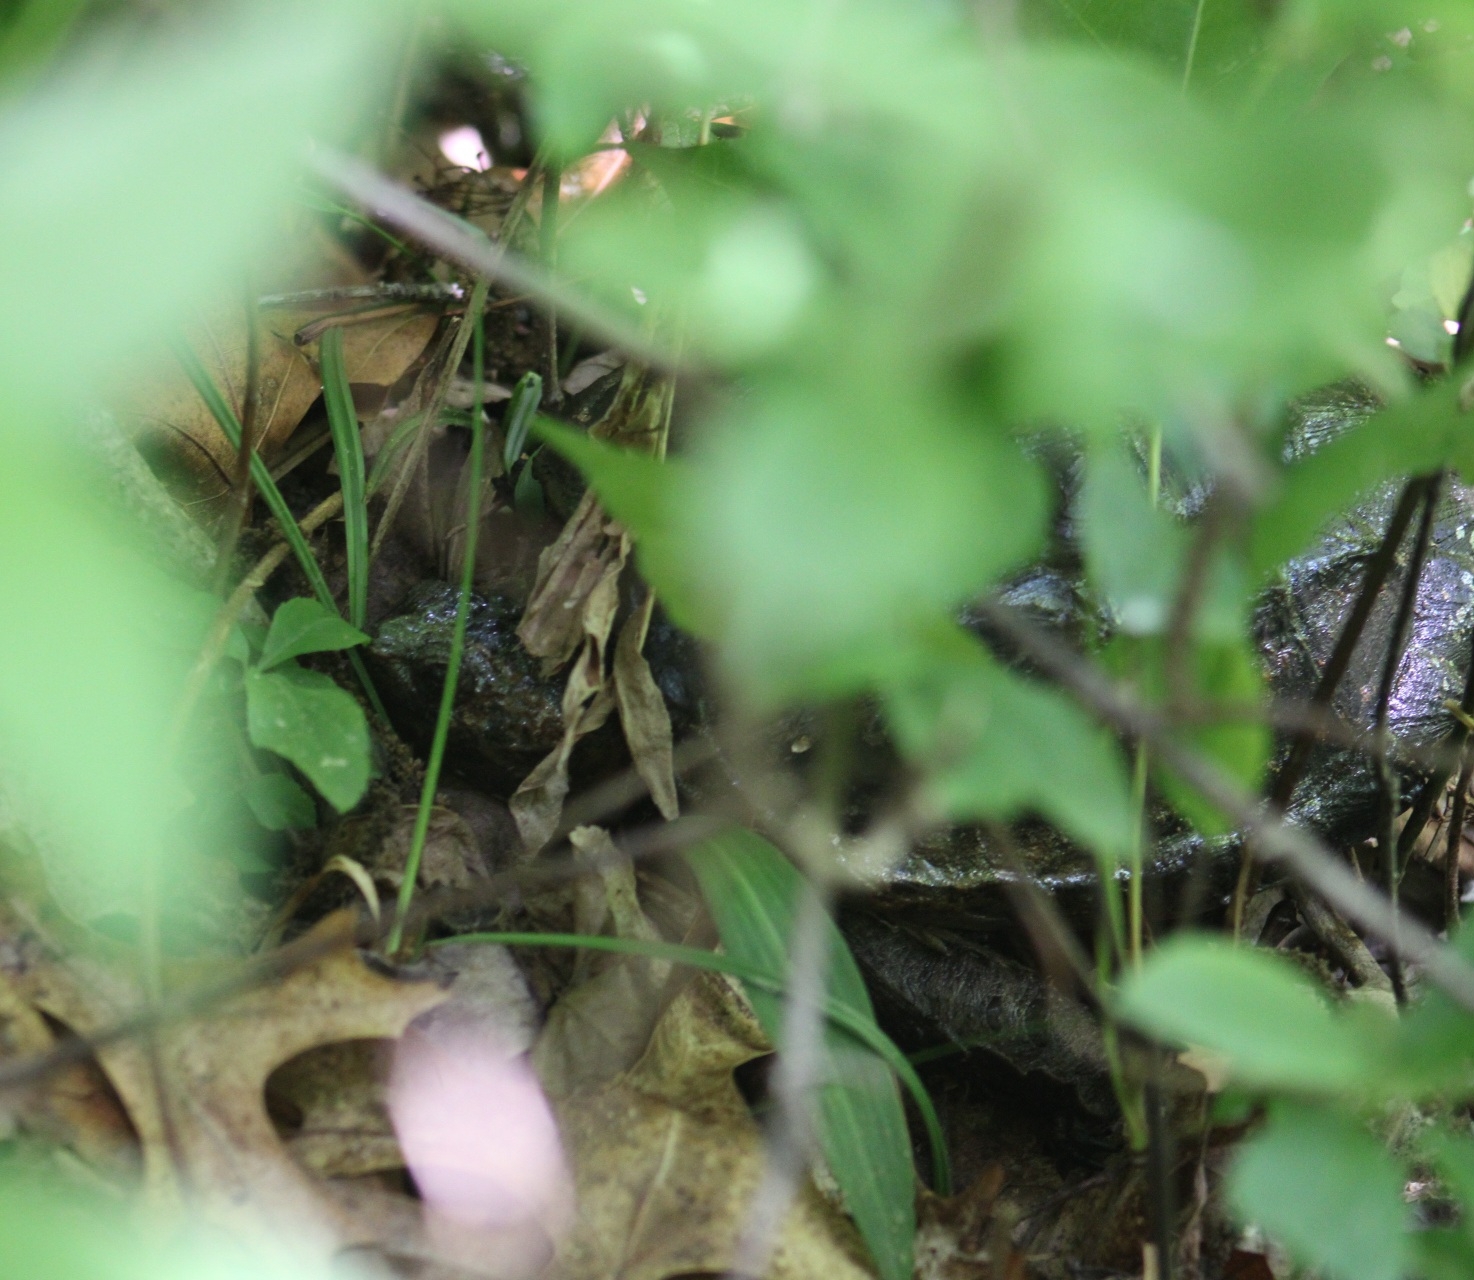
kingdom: Animalia
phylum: Chordata
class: Testudines
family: Chelydridae
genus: Chelydra
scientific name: Chelydra serpentina
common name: Common snapping turtle
